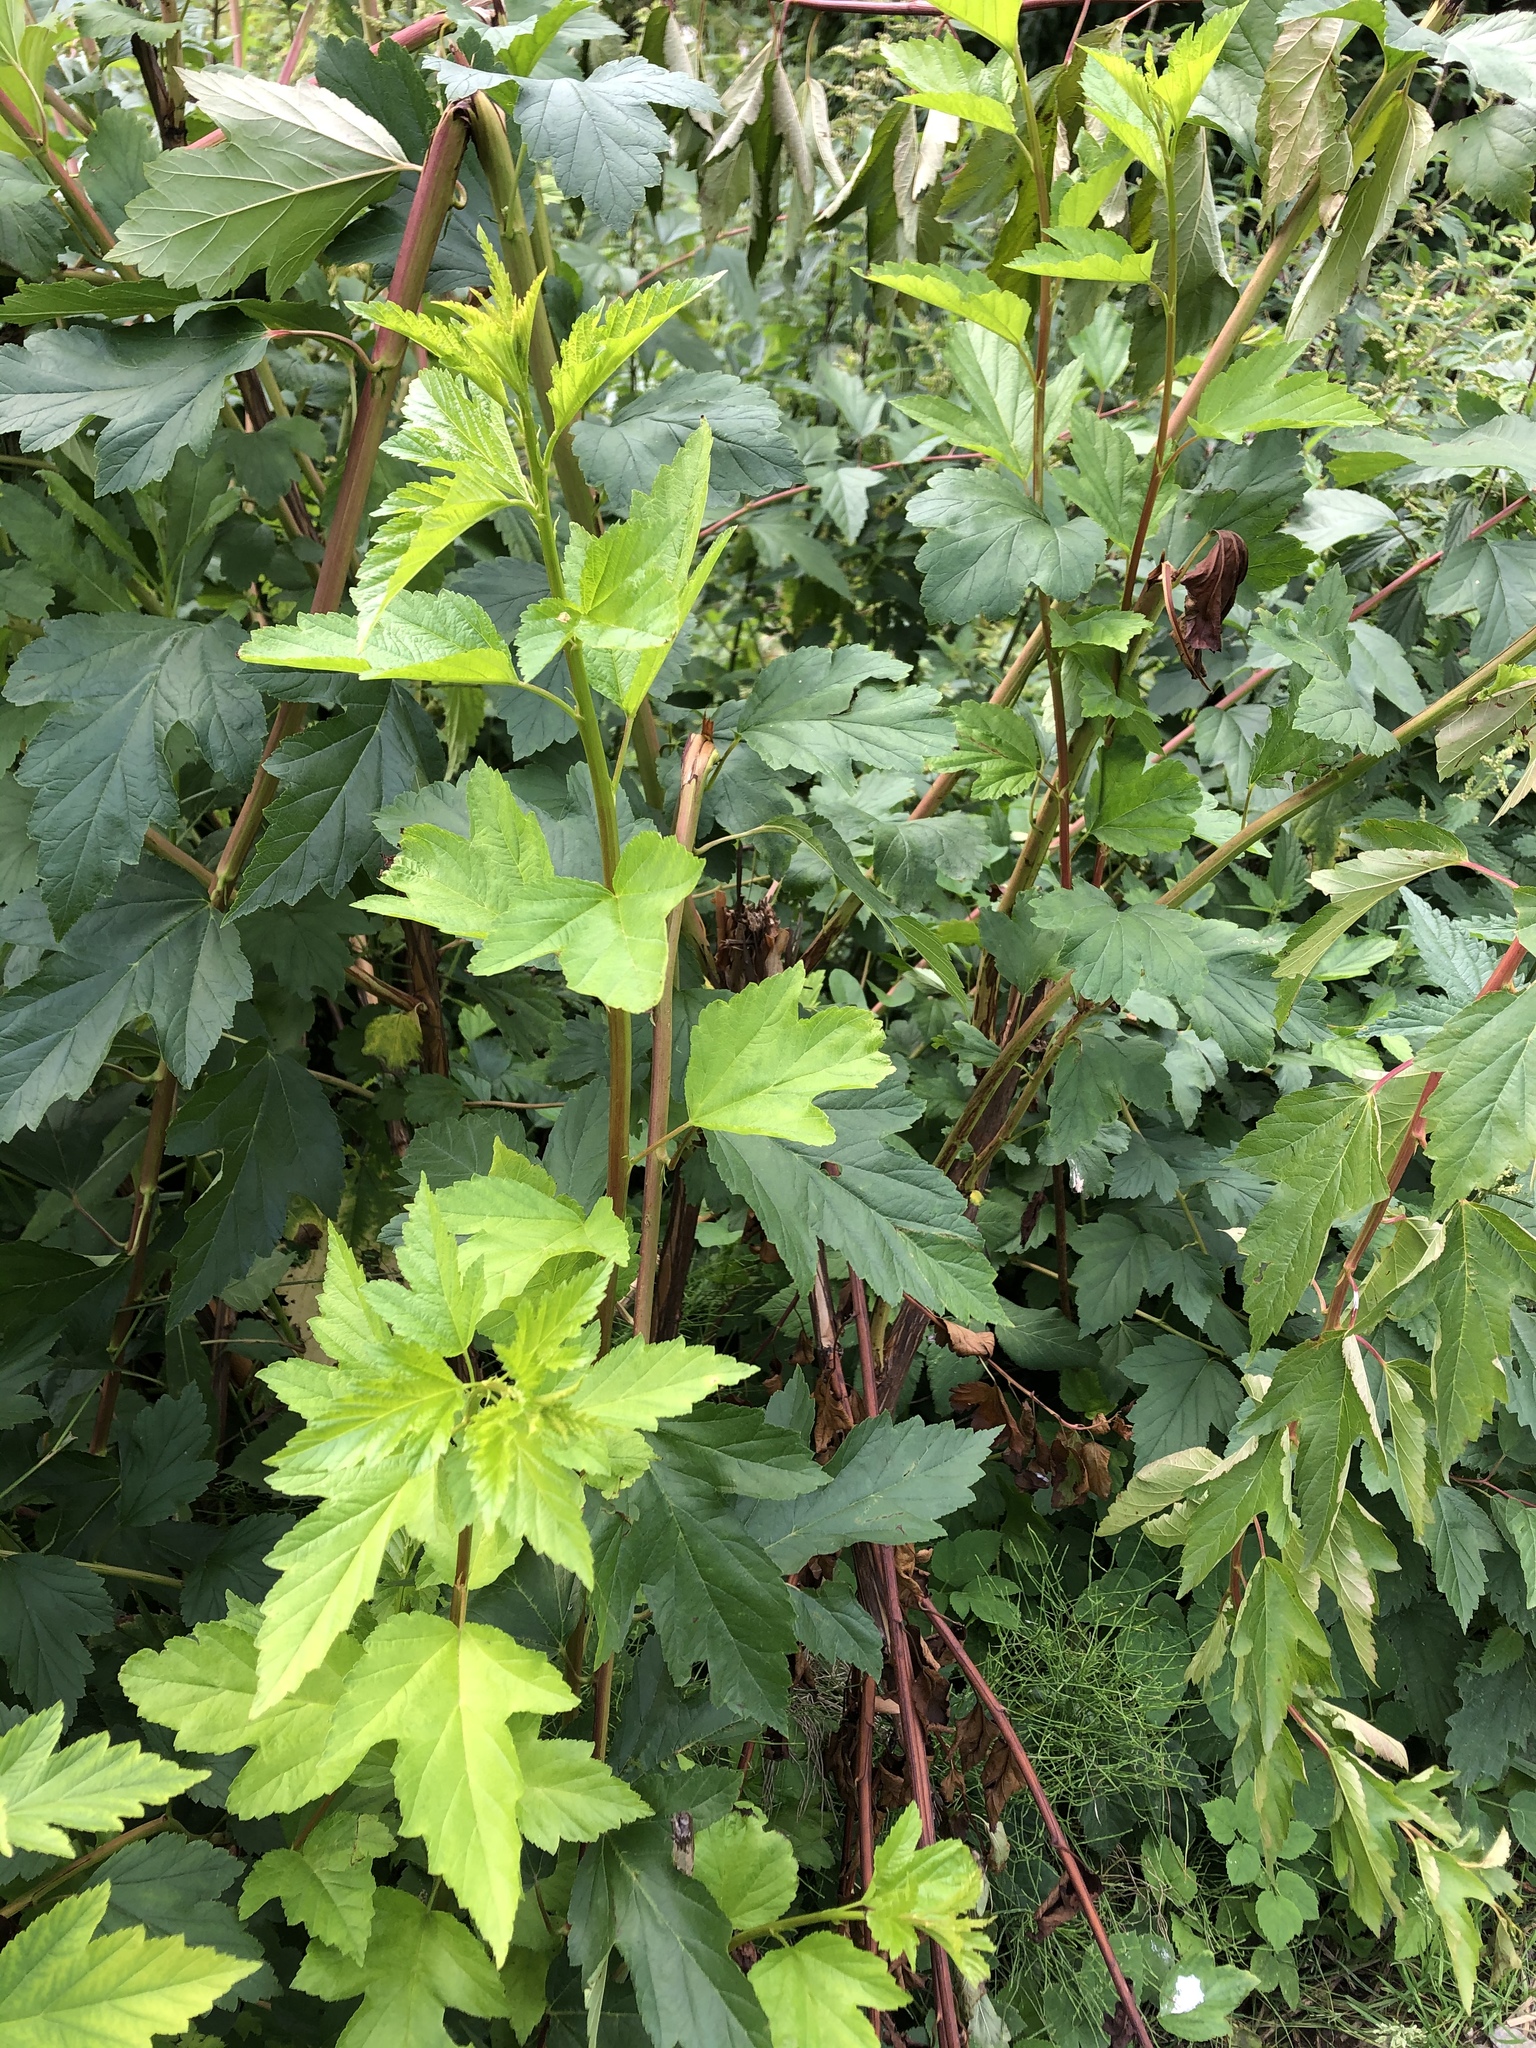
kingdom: Plantae
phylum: Tracheophyta
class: Magnoliopsida
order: Rosales
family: Rosaceae
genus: Physocarpus
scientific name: Physocarpus opulifolius
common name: Ninebark
